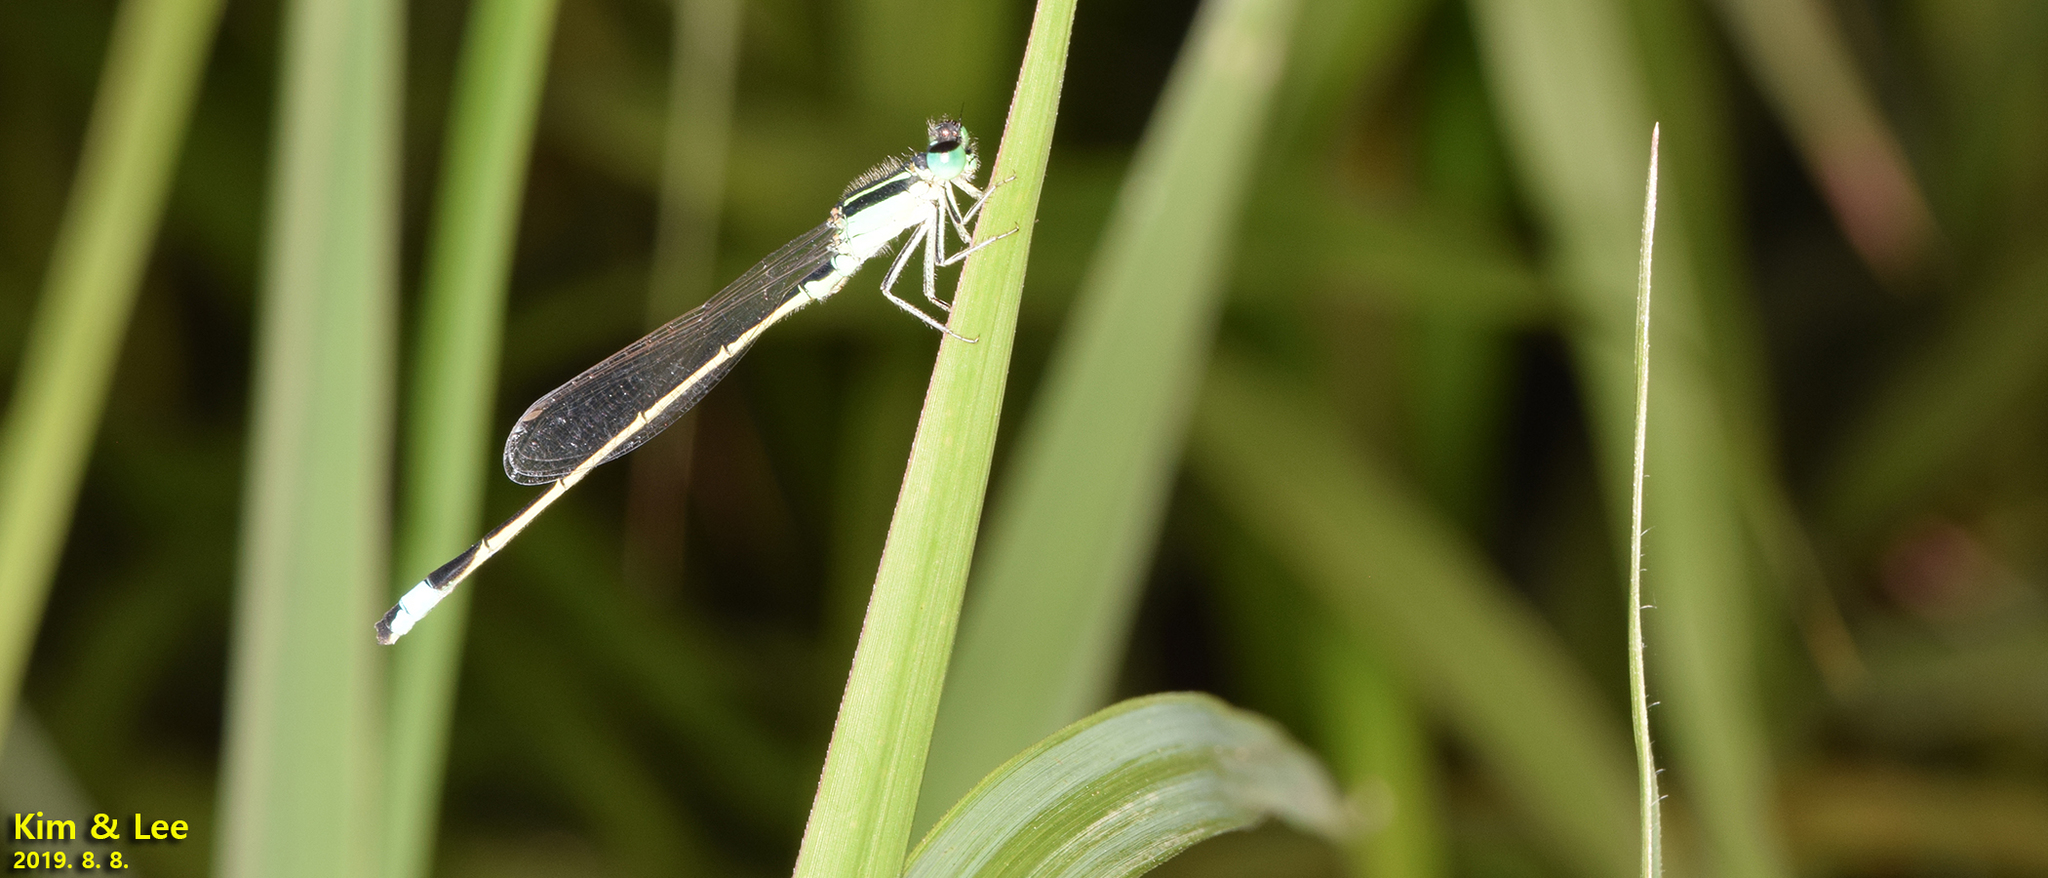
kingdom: Animalia
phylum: Arthropoda
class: Insecta
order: Odonata
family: Coenagrionidae
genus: Ischnura
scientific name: Ischnura senegalensis
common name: Tropical bluetail
